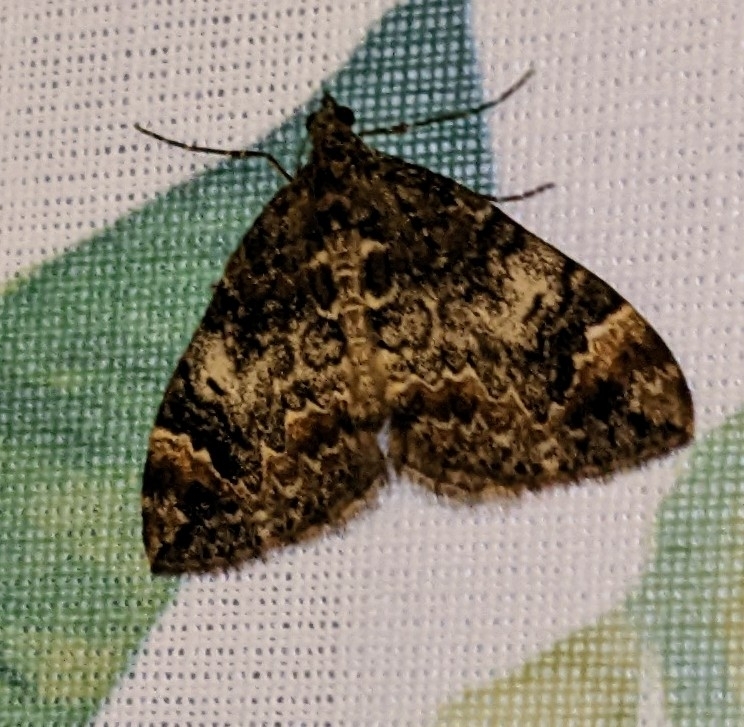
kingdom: Animalia
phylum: Arthropoda
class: Insecta
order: Lepidoptera
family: Geometridae
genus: Dysstroma
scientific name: Dysstroma
